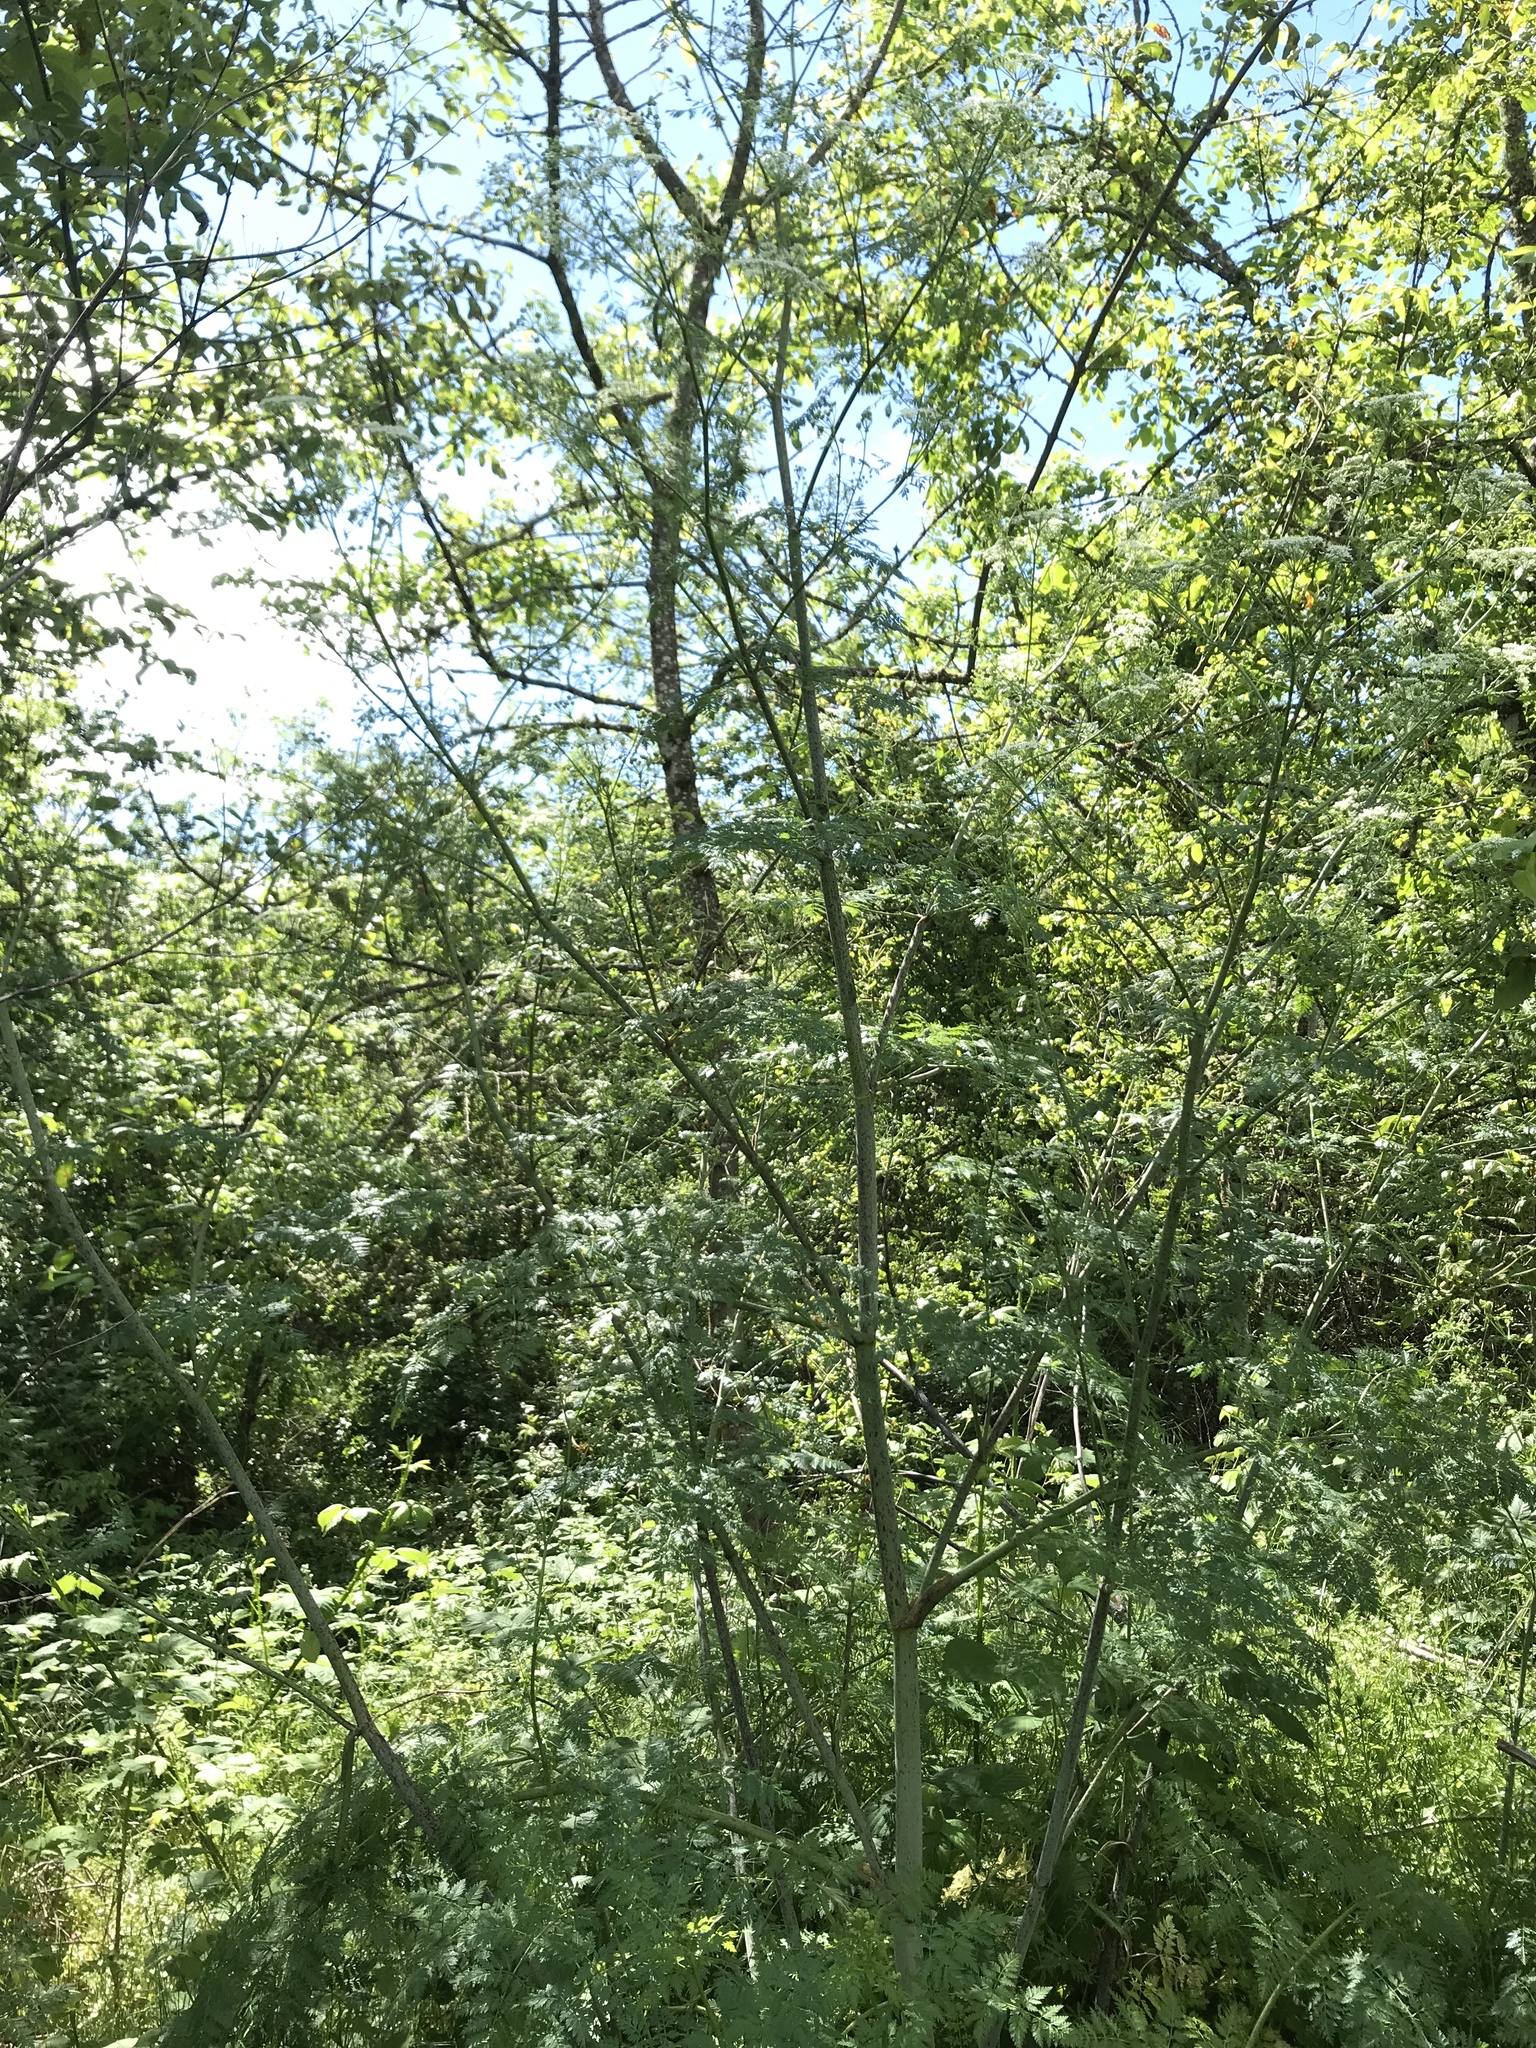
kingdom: Plantae
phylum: Tracheophyta
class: Magnoliopsida
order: Apiales
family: Apiaceae
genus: Conium
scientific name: Conium maculatum
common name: Hemlock
